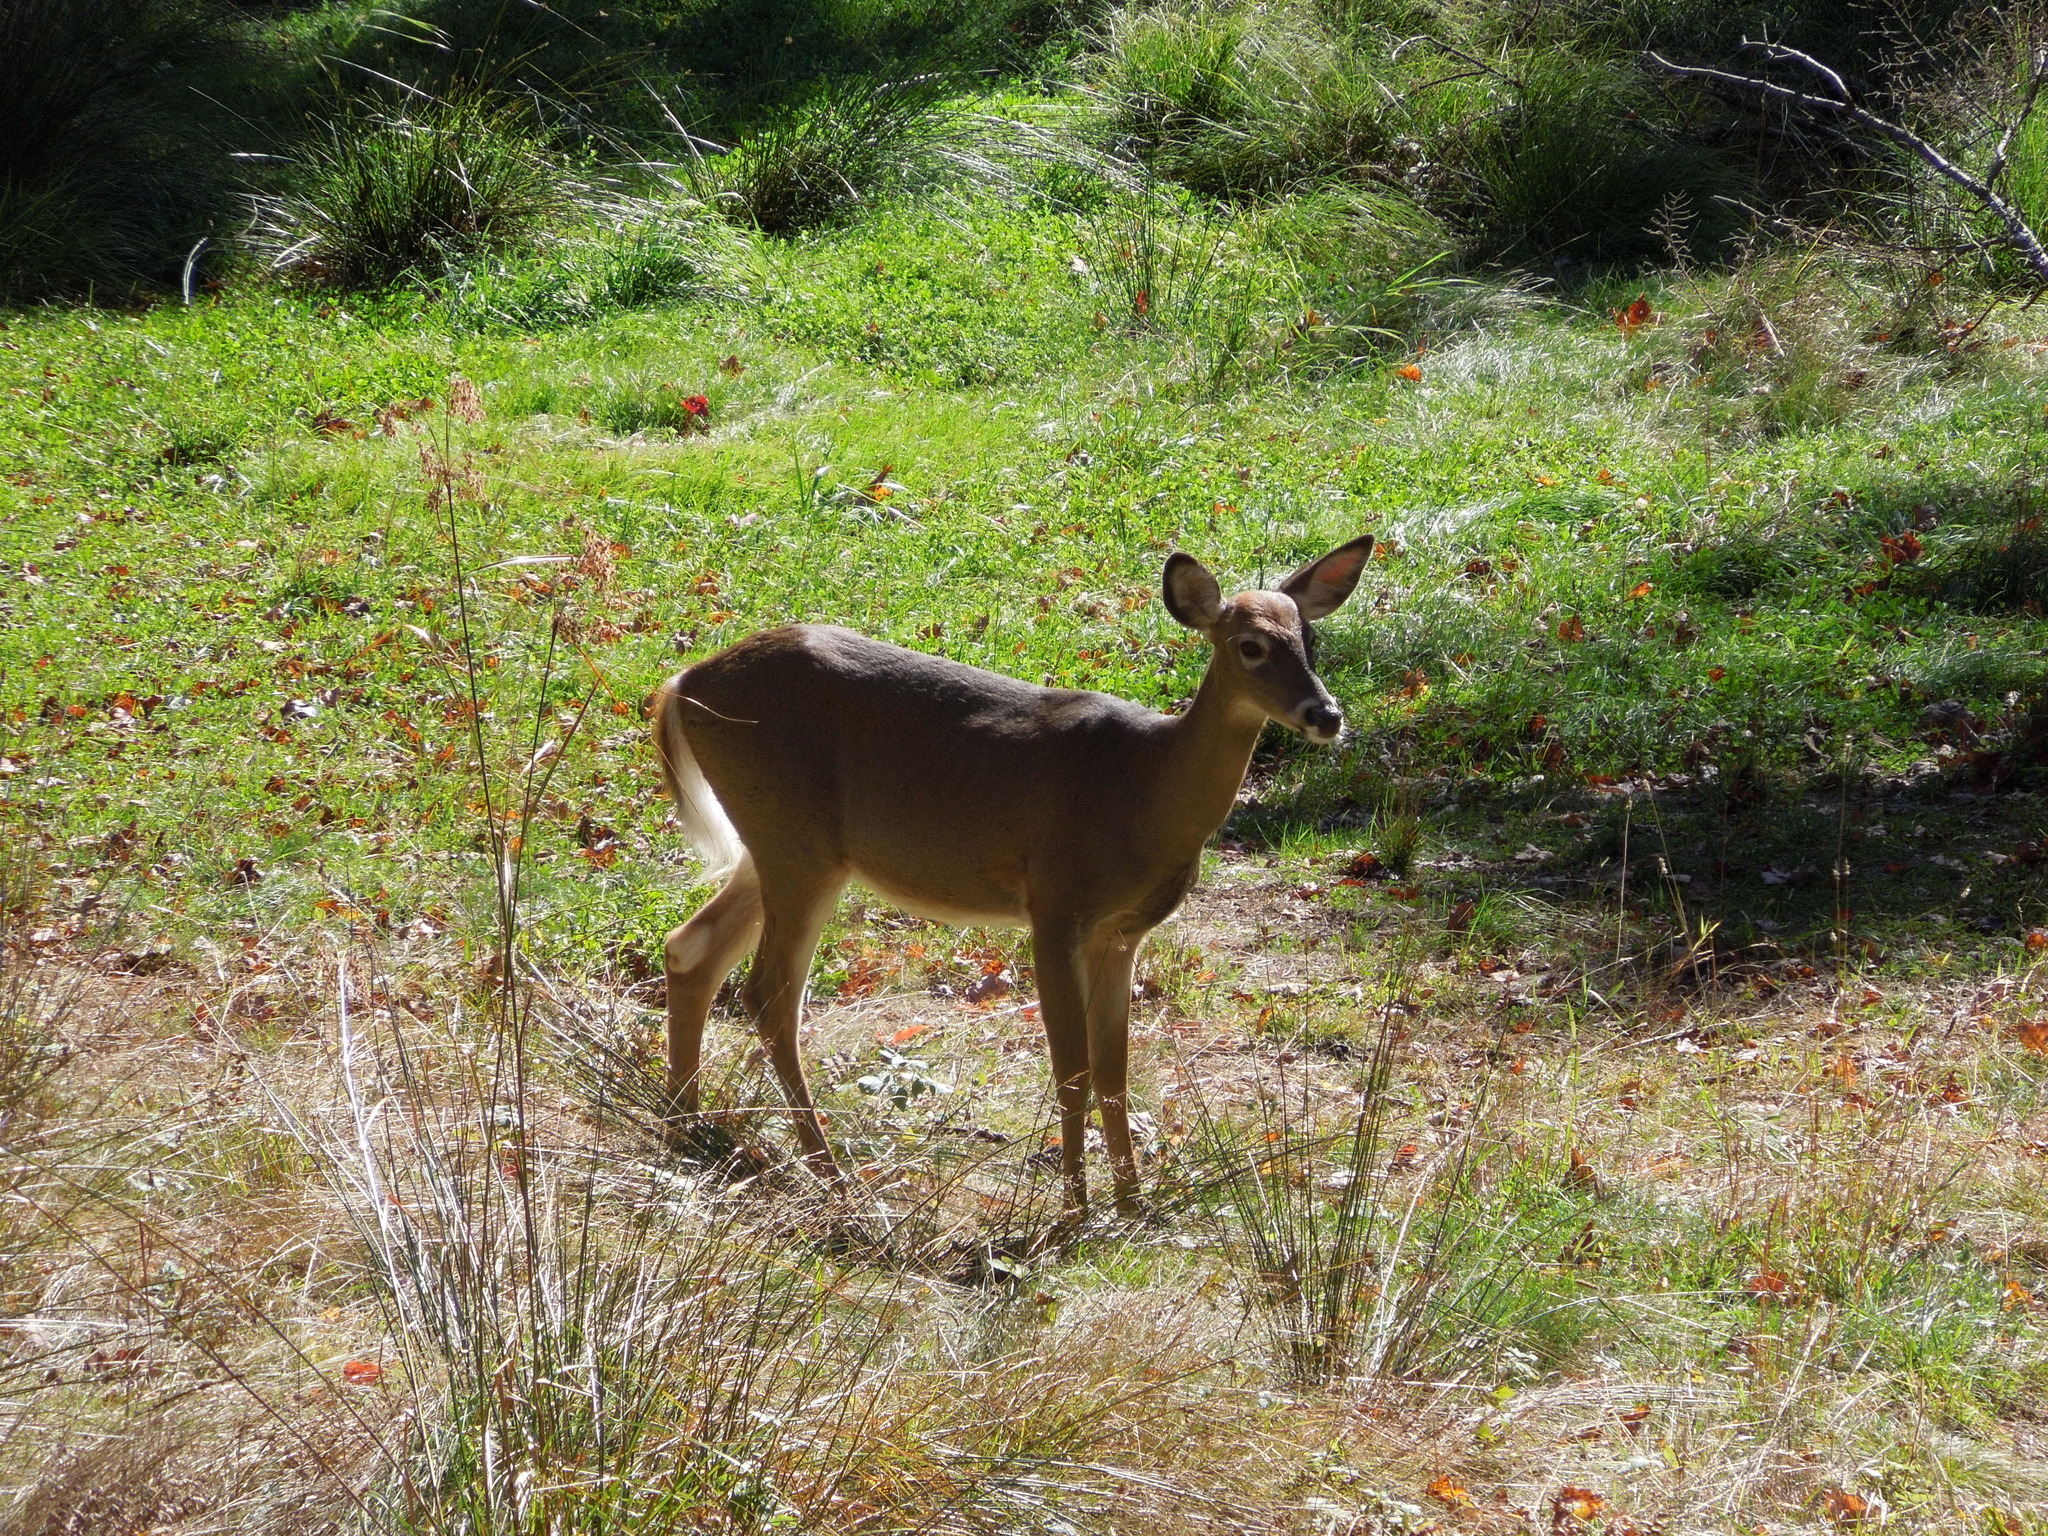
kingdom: Animalia
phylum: Chordata
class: Mammalia
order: Artiodactyla
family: Cervidae
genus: Odocoileus
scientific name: Odocoileus virginianus
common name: White-tailed deer
